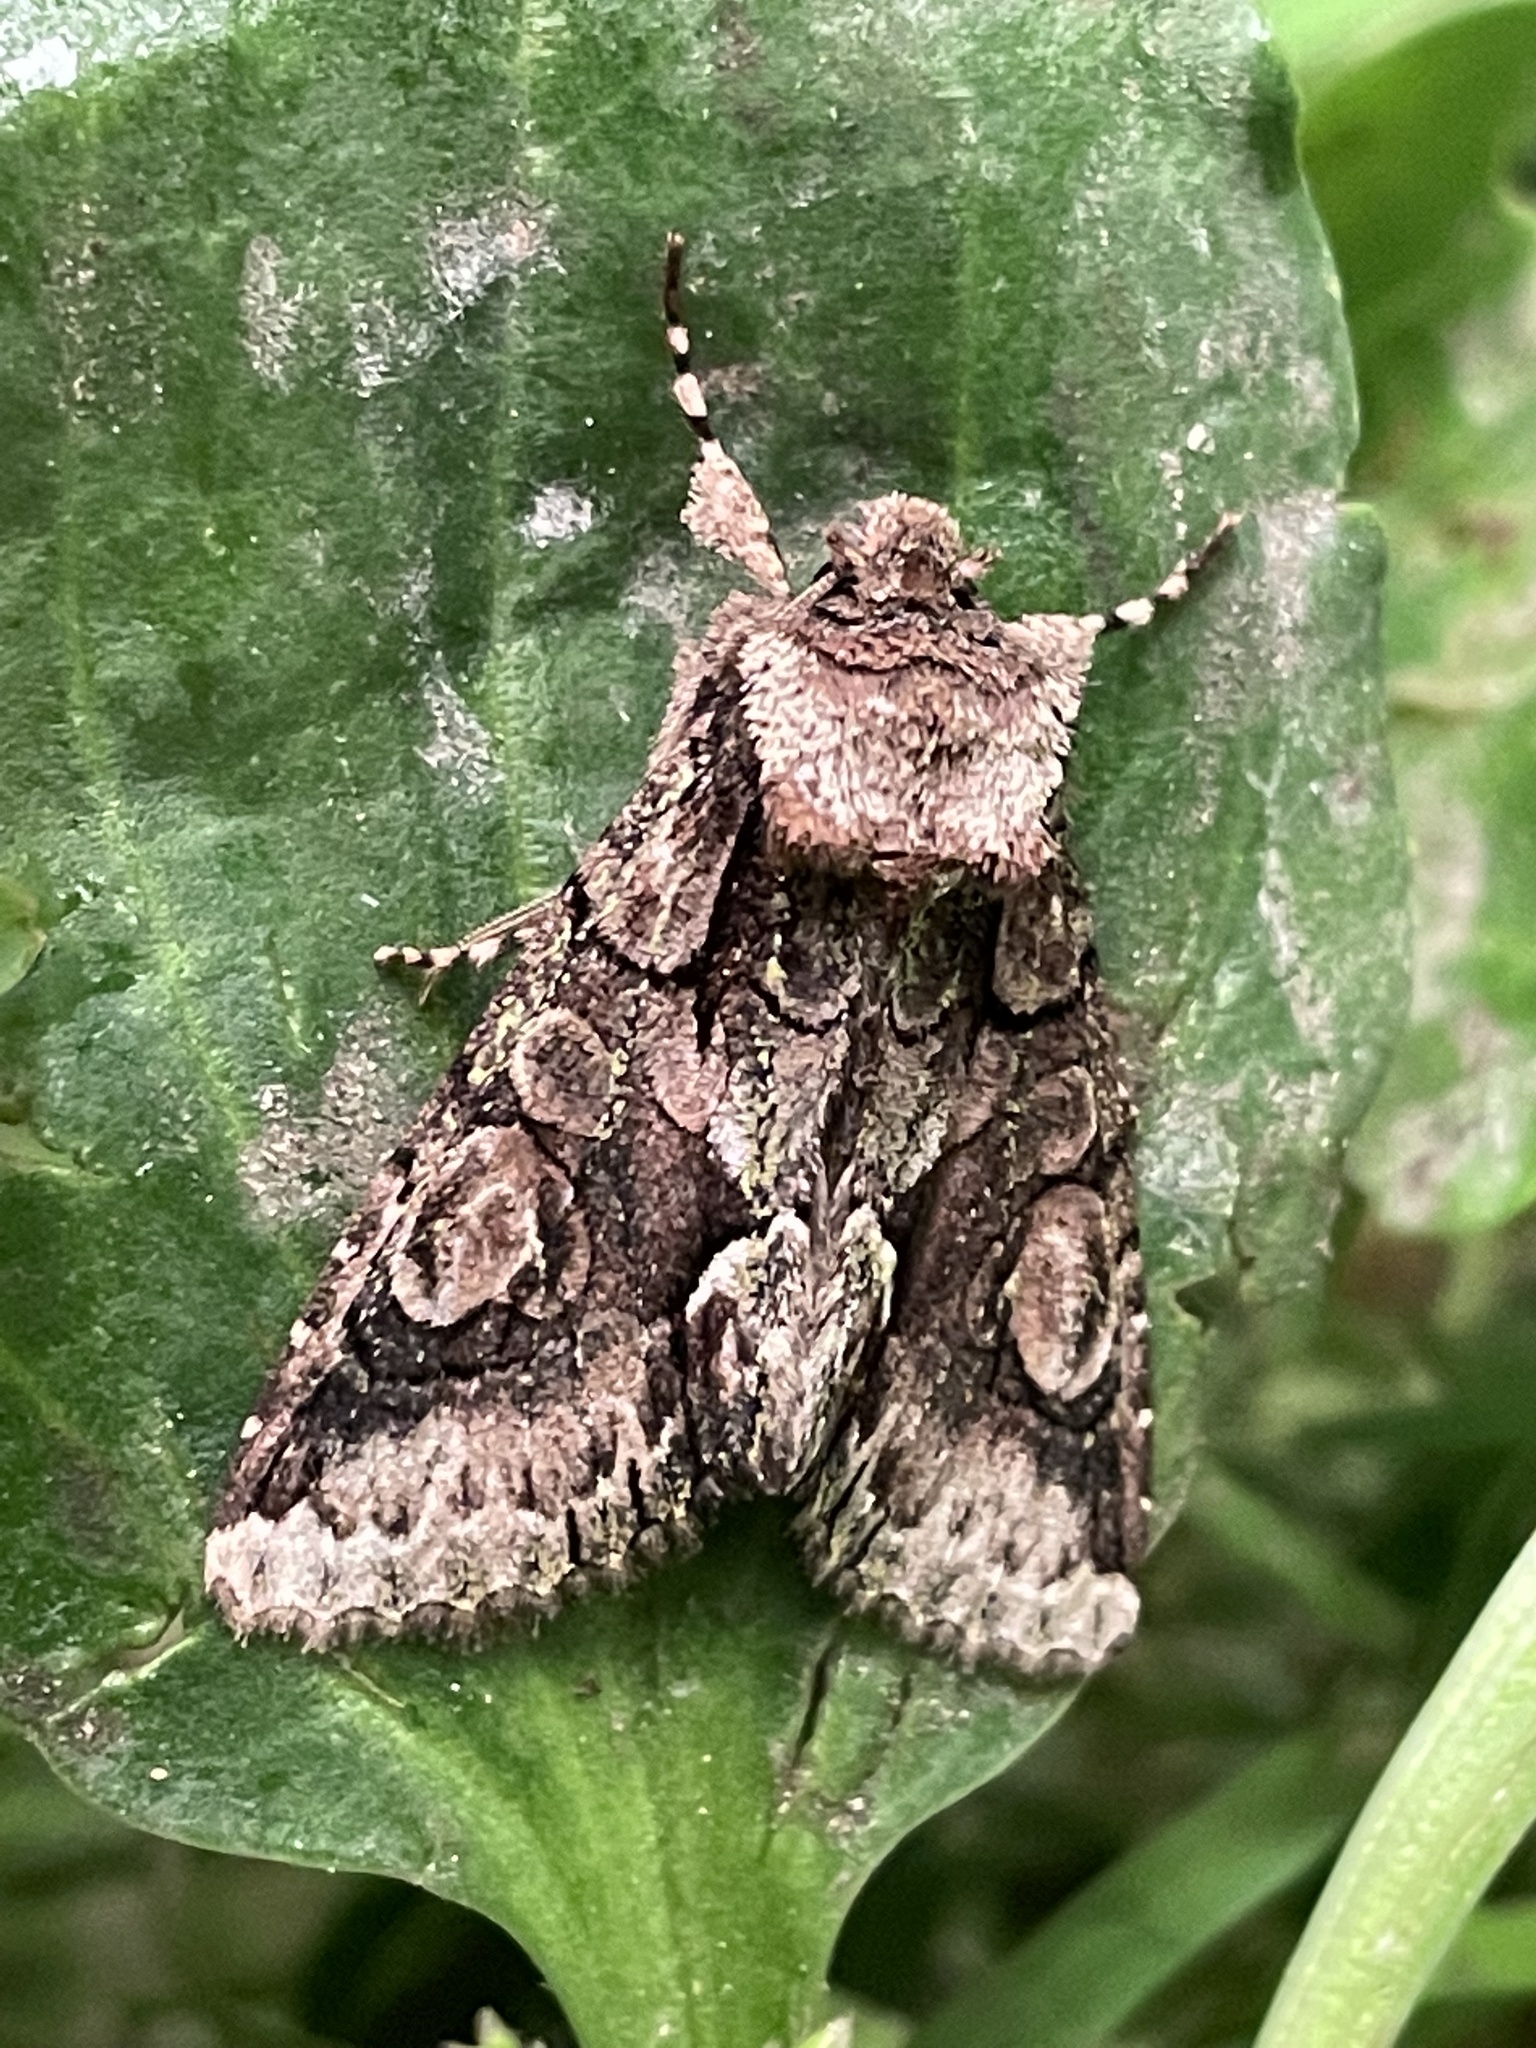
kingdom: Animalia
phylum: Arthropoda
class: Insecta
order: Lepidoptera
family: Noctuidae
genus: Allophyes
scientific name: Allophyes oxyacanthae
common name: Green-brindled crescent
